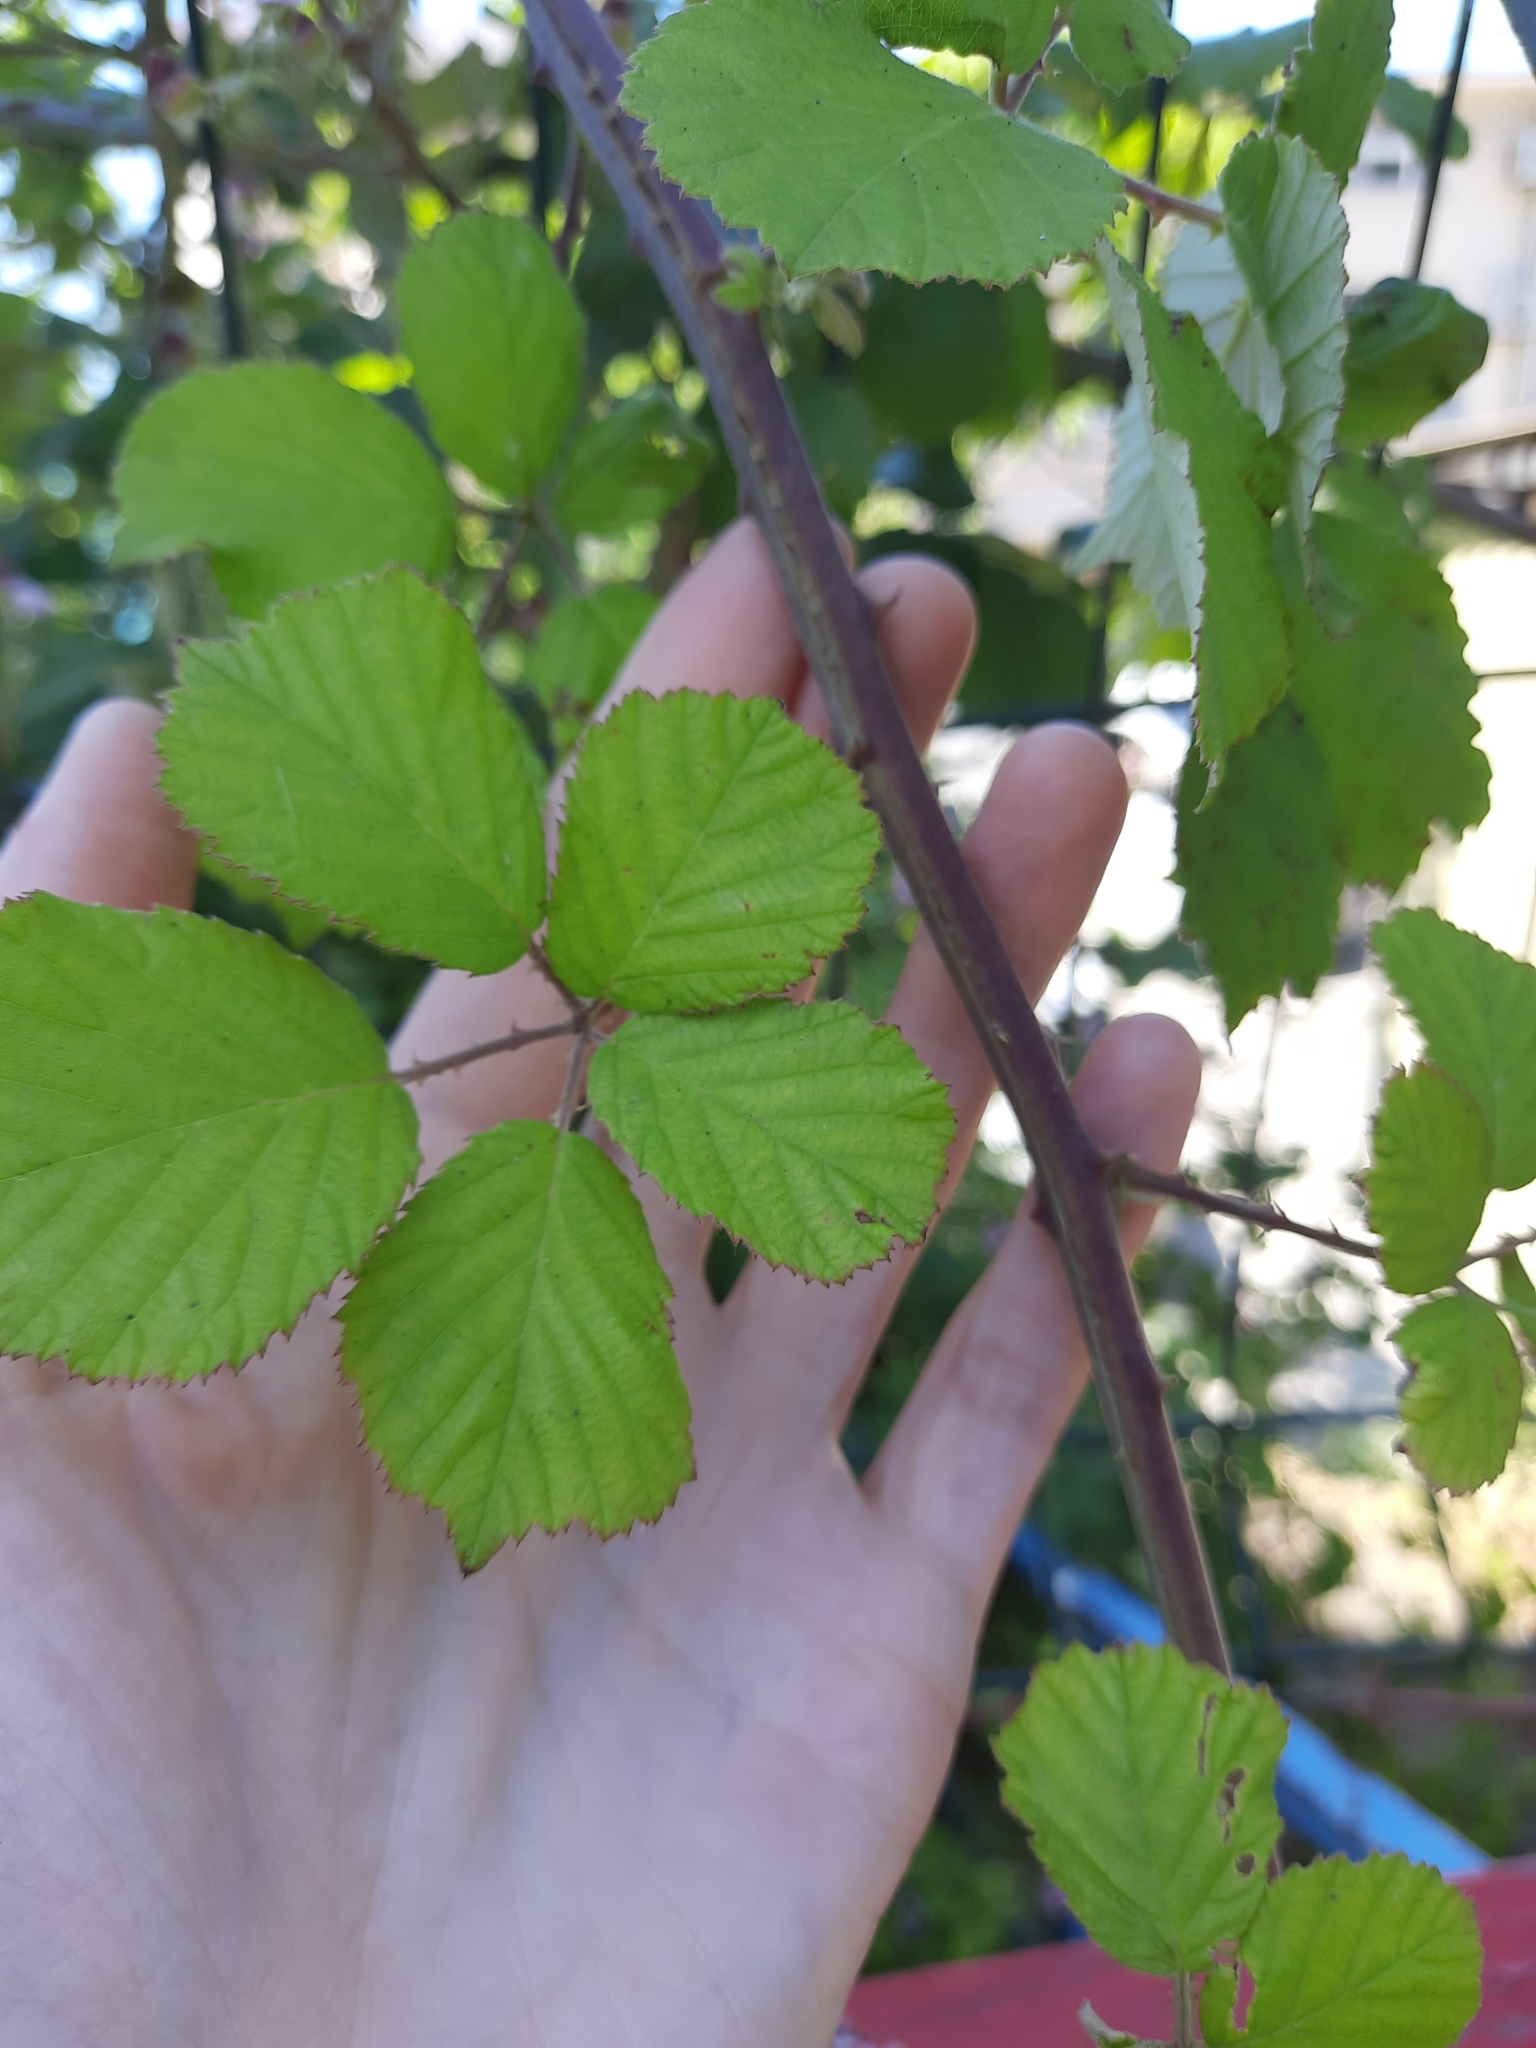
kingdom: Plantae
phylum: Tracheophyta
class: Magnoliopsida
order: Rosales
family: Rosaceae
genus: Rubus
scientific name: Rubus sanctus
